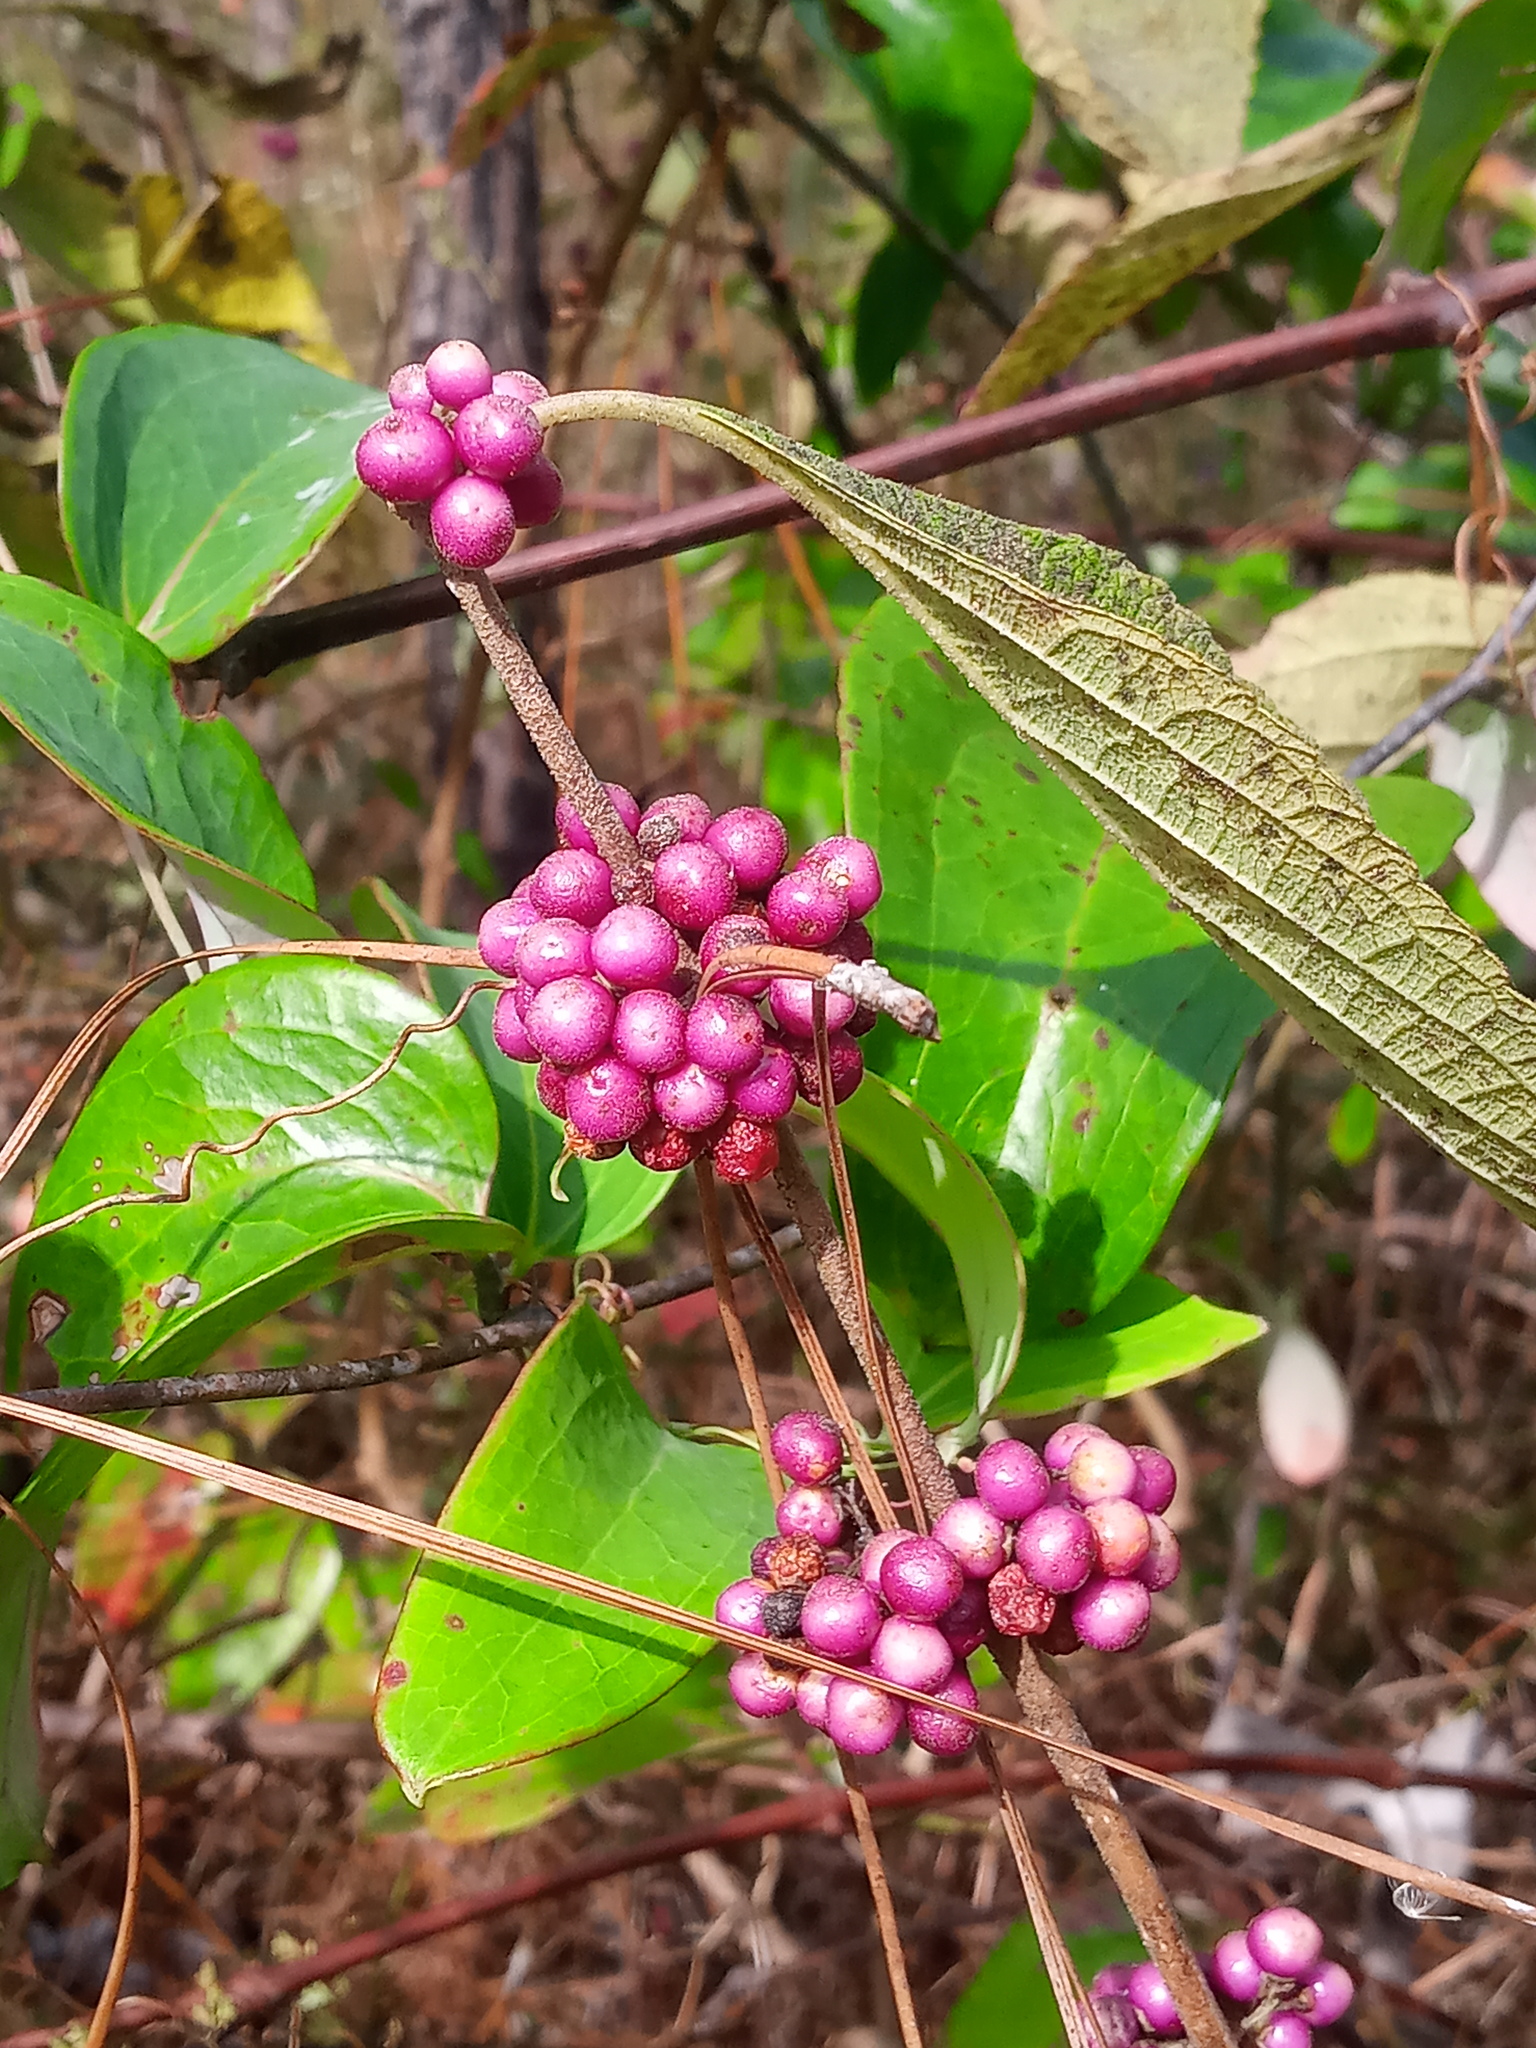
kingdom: Plantae
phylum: Tracheophyta
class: Magnoliopsida
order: Lamiales
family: Lamiaceae
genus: Callicarpa
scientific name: Callicarpa americana
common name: American beautyberry
